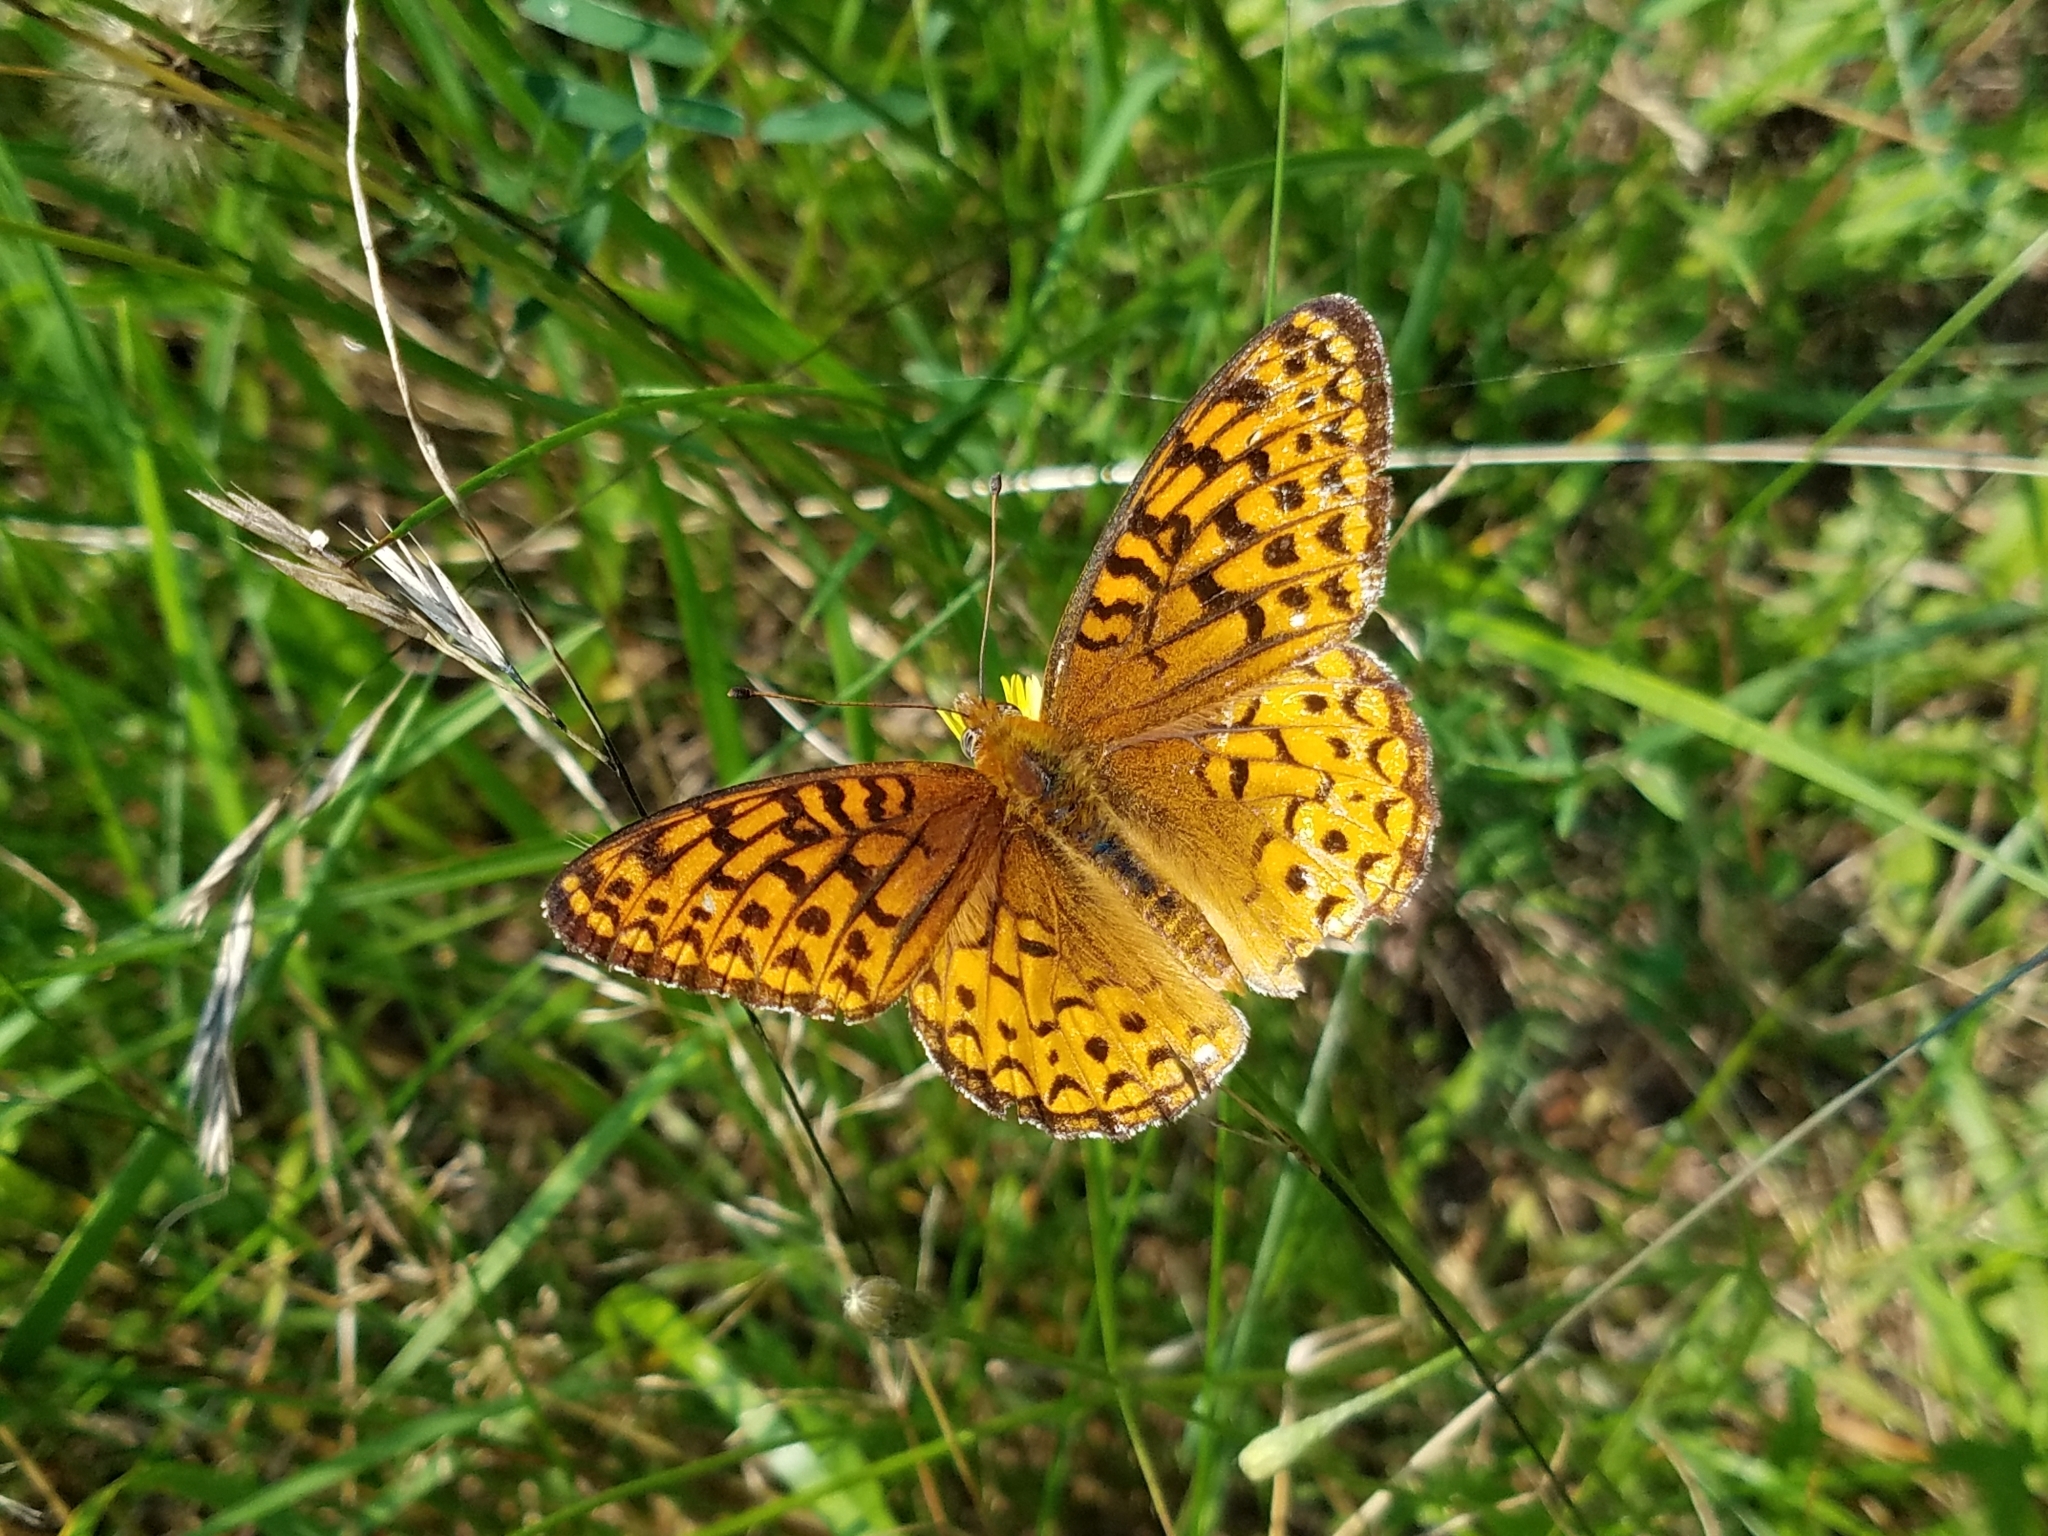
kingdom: Animalia
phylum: Arthropoda
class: Insecta
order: Lepidoptera
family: Nymphalidae
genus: Speyeria
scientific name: Speyeria atlantis
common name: Atlantis fritillary
